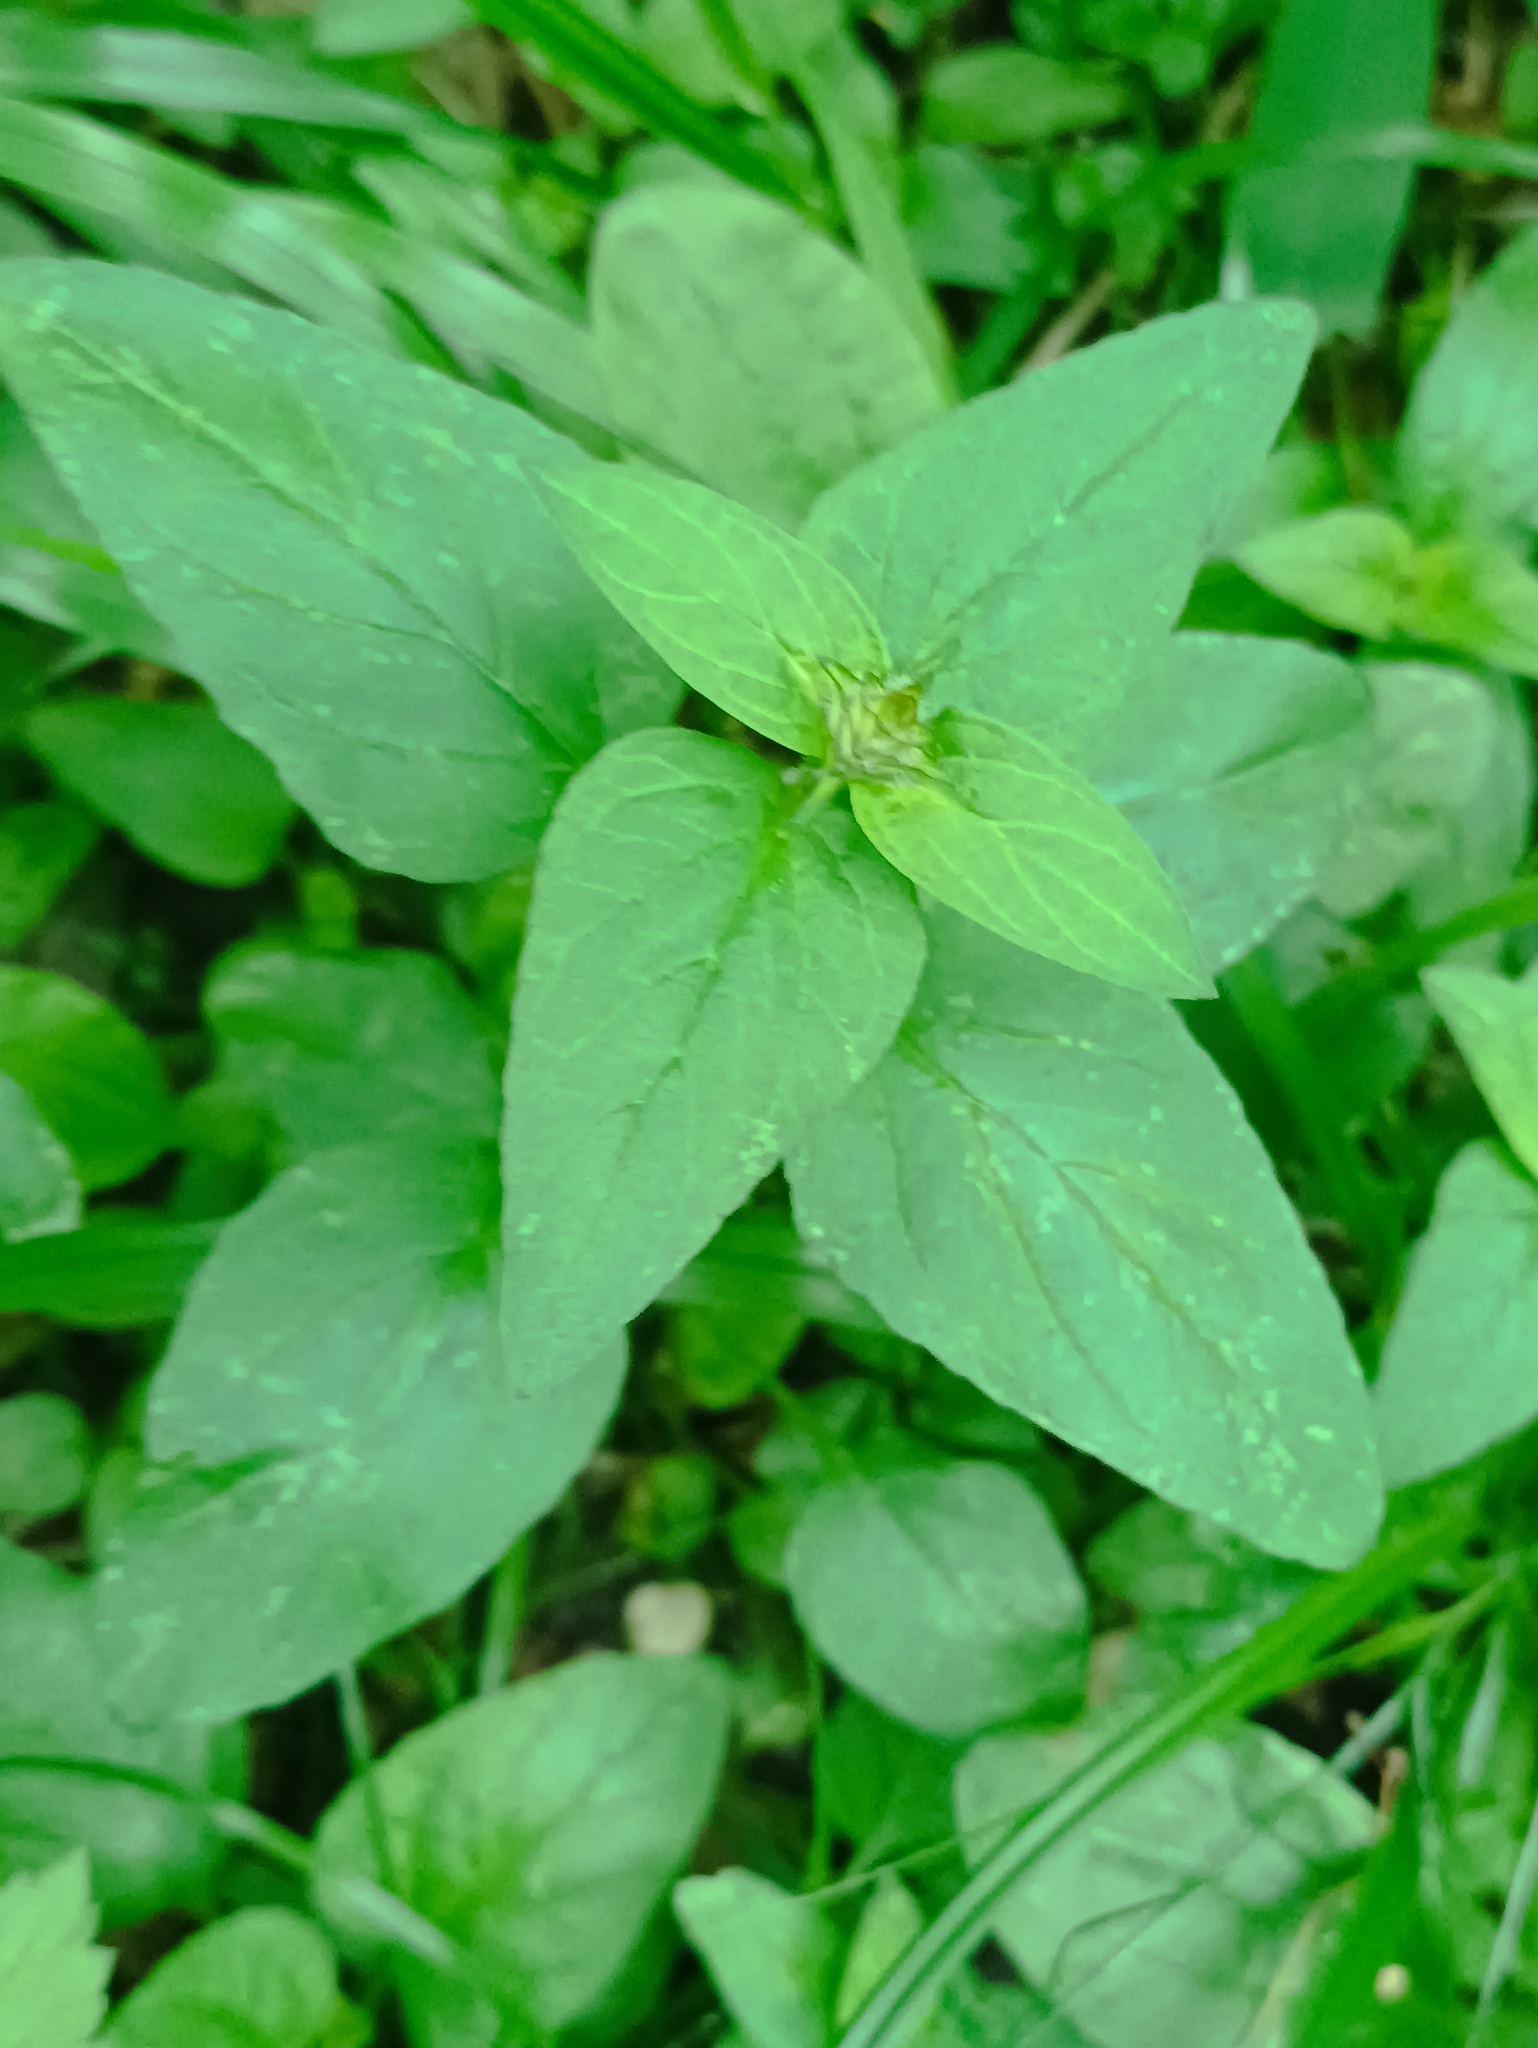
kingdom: Plantae
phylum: Tracheophyta
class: Magnoliopsida
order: Lamiales
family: Lamiaceae
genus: Prunella
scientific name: Prunella vulgaris
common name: Heal-all
